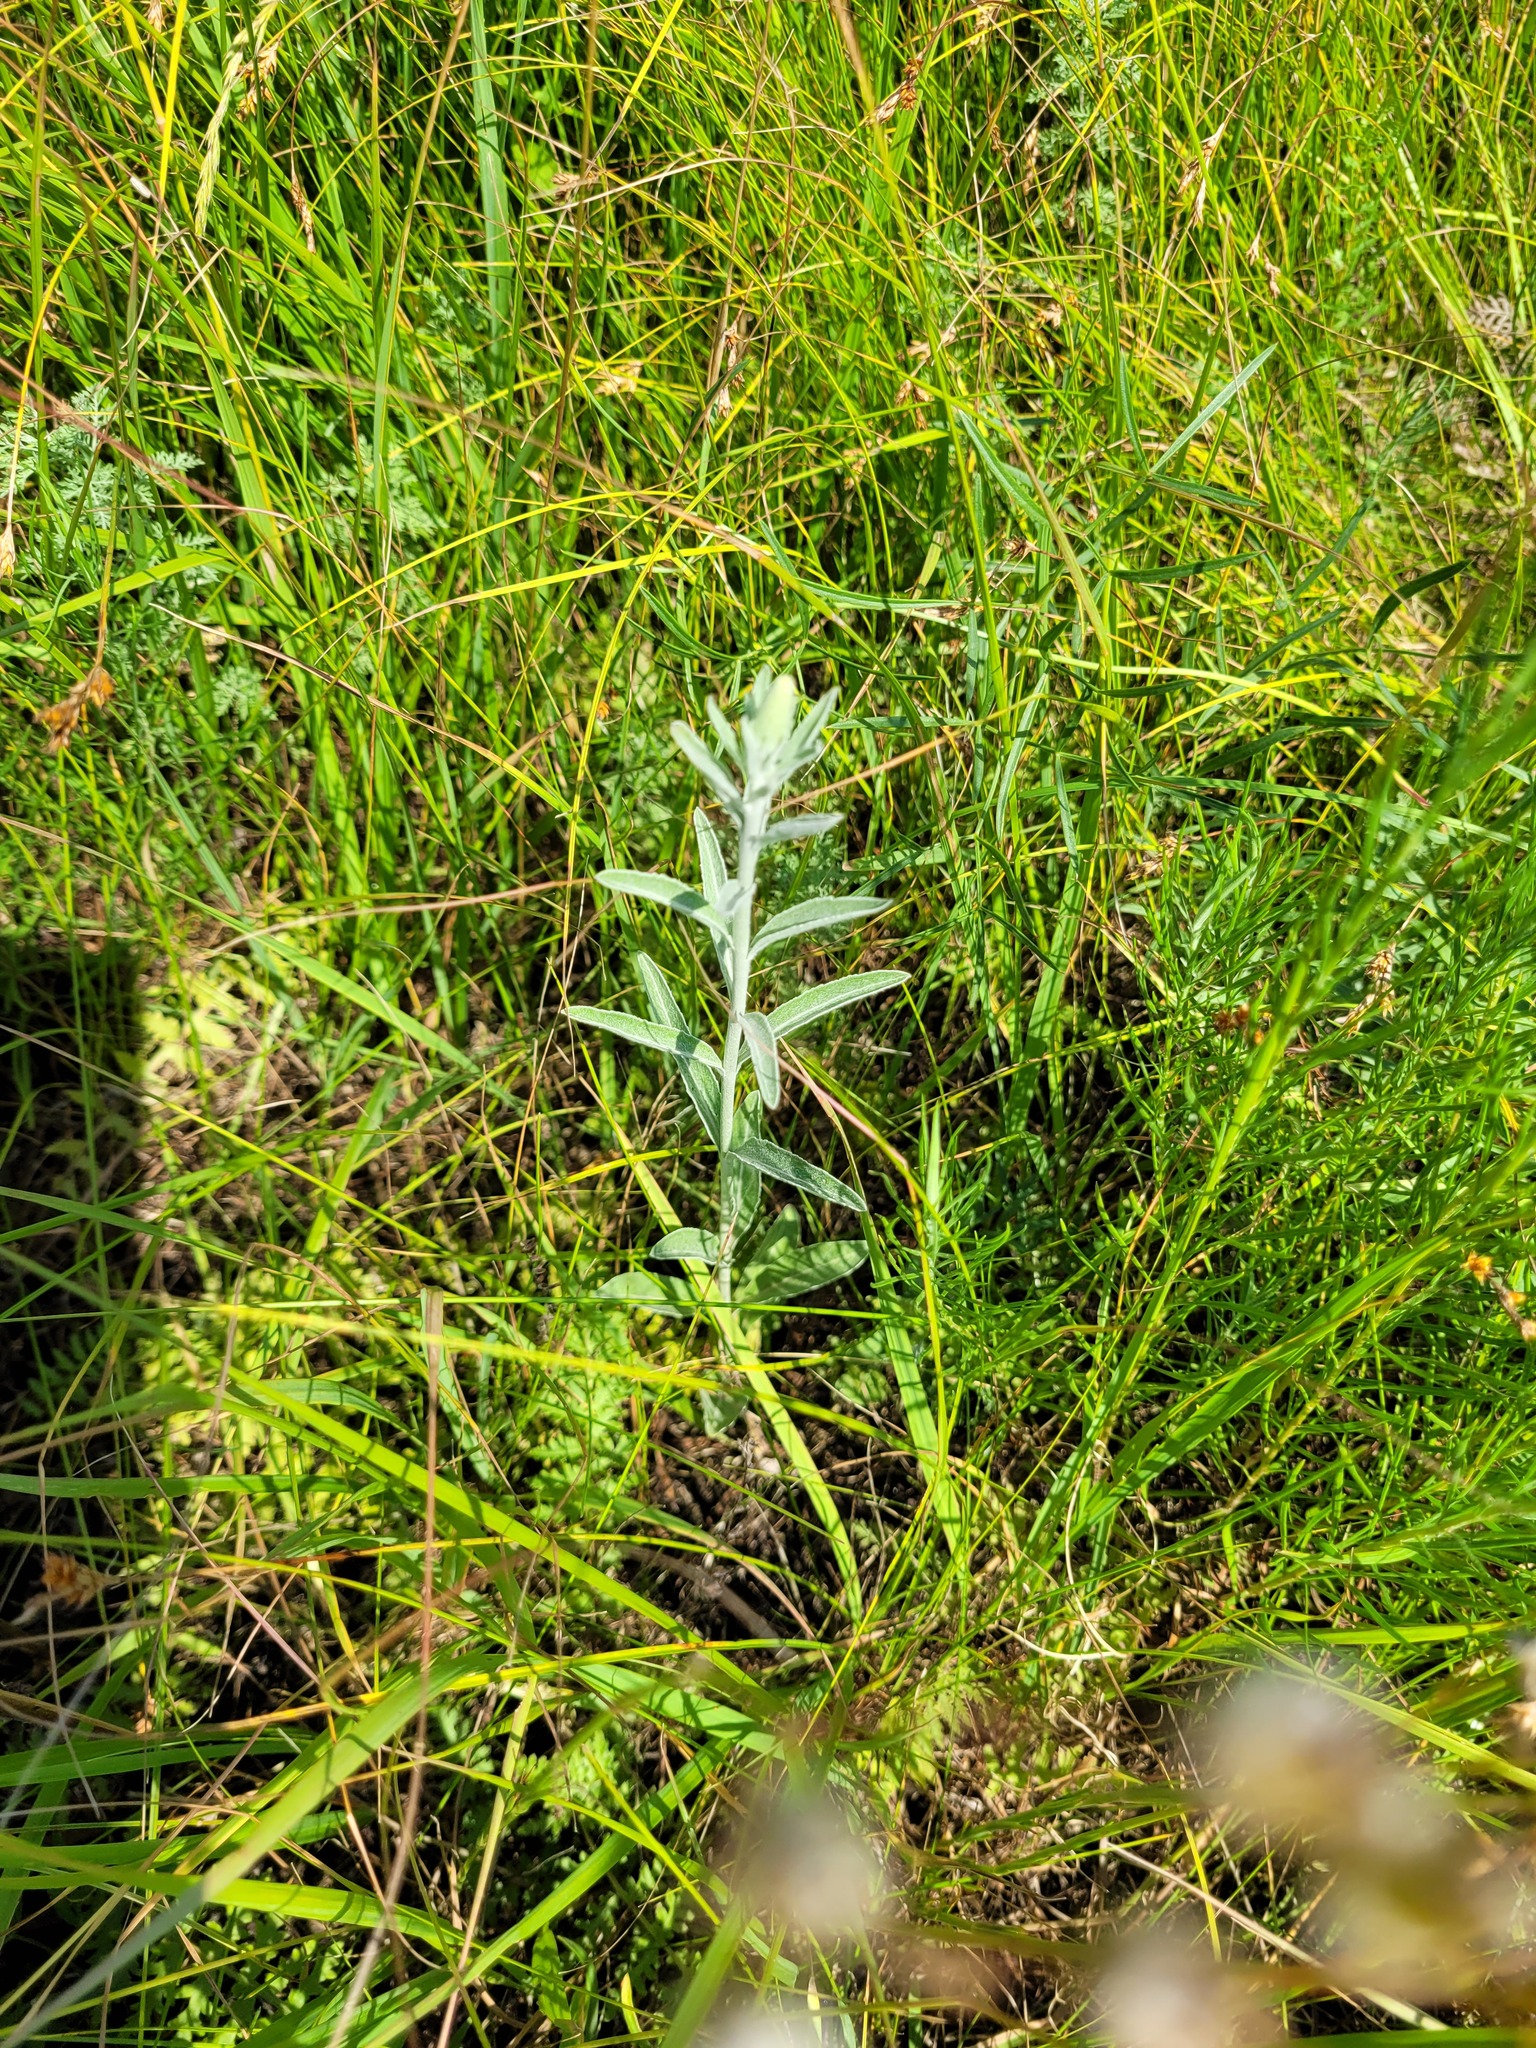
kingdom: Plantae
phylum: Tracheophyta
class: Magnoliopsida
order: Lamiales
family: Plantaginaceae
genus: Veronica
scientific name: Veronica incana
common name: Silver speedwell
